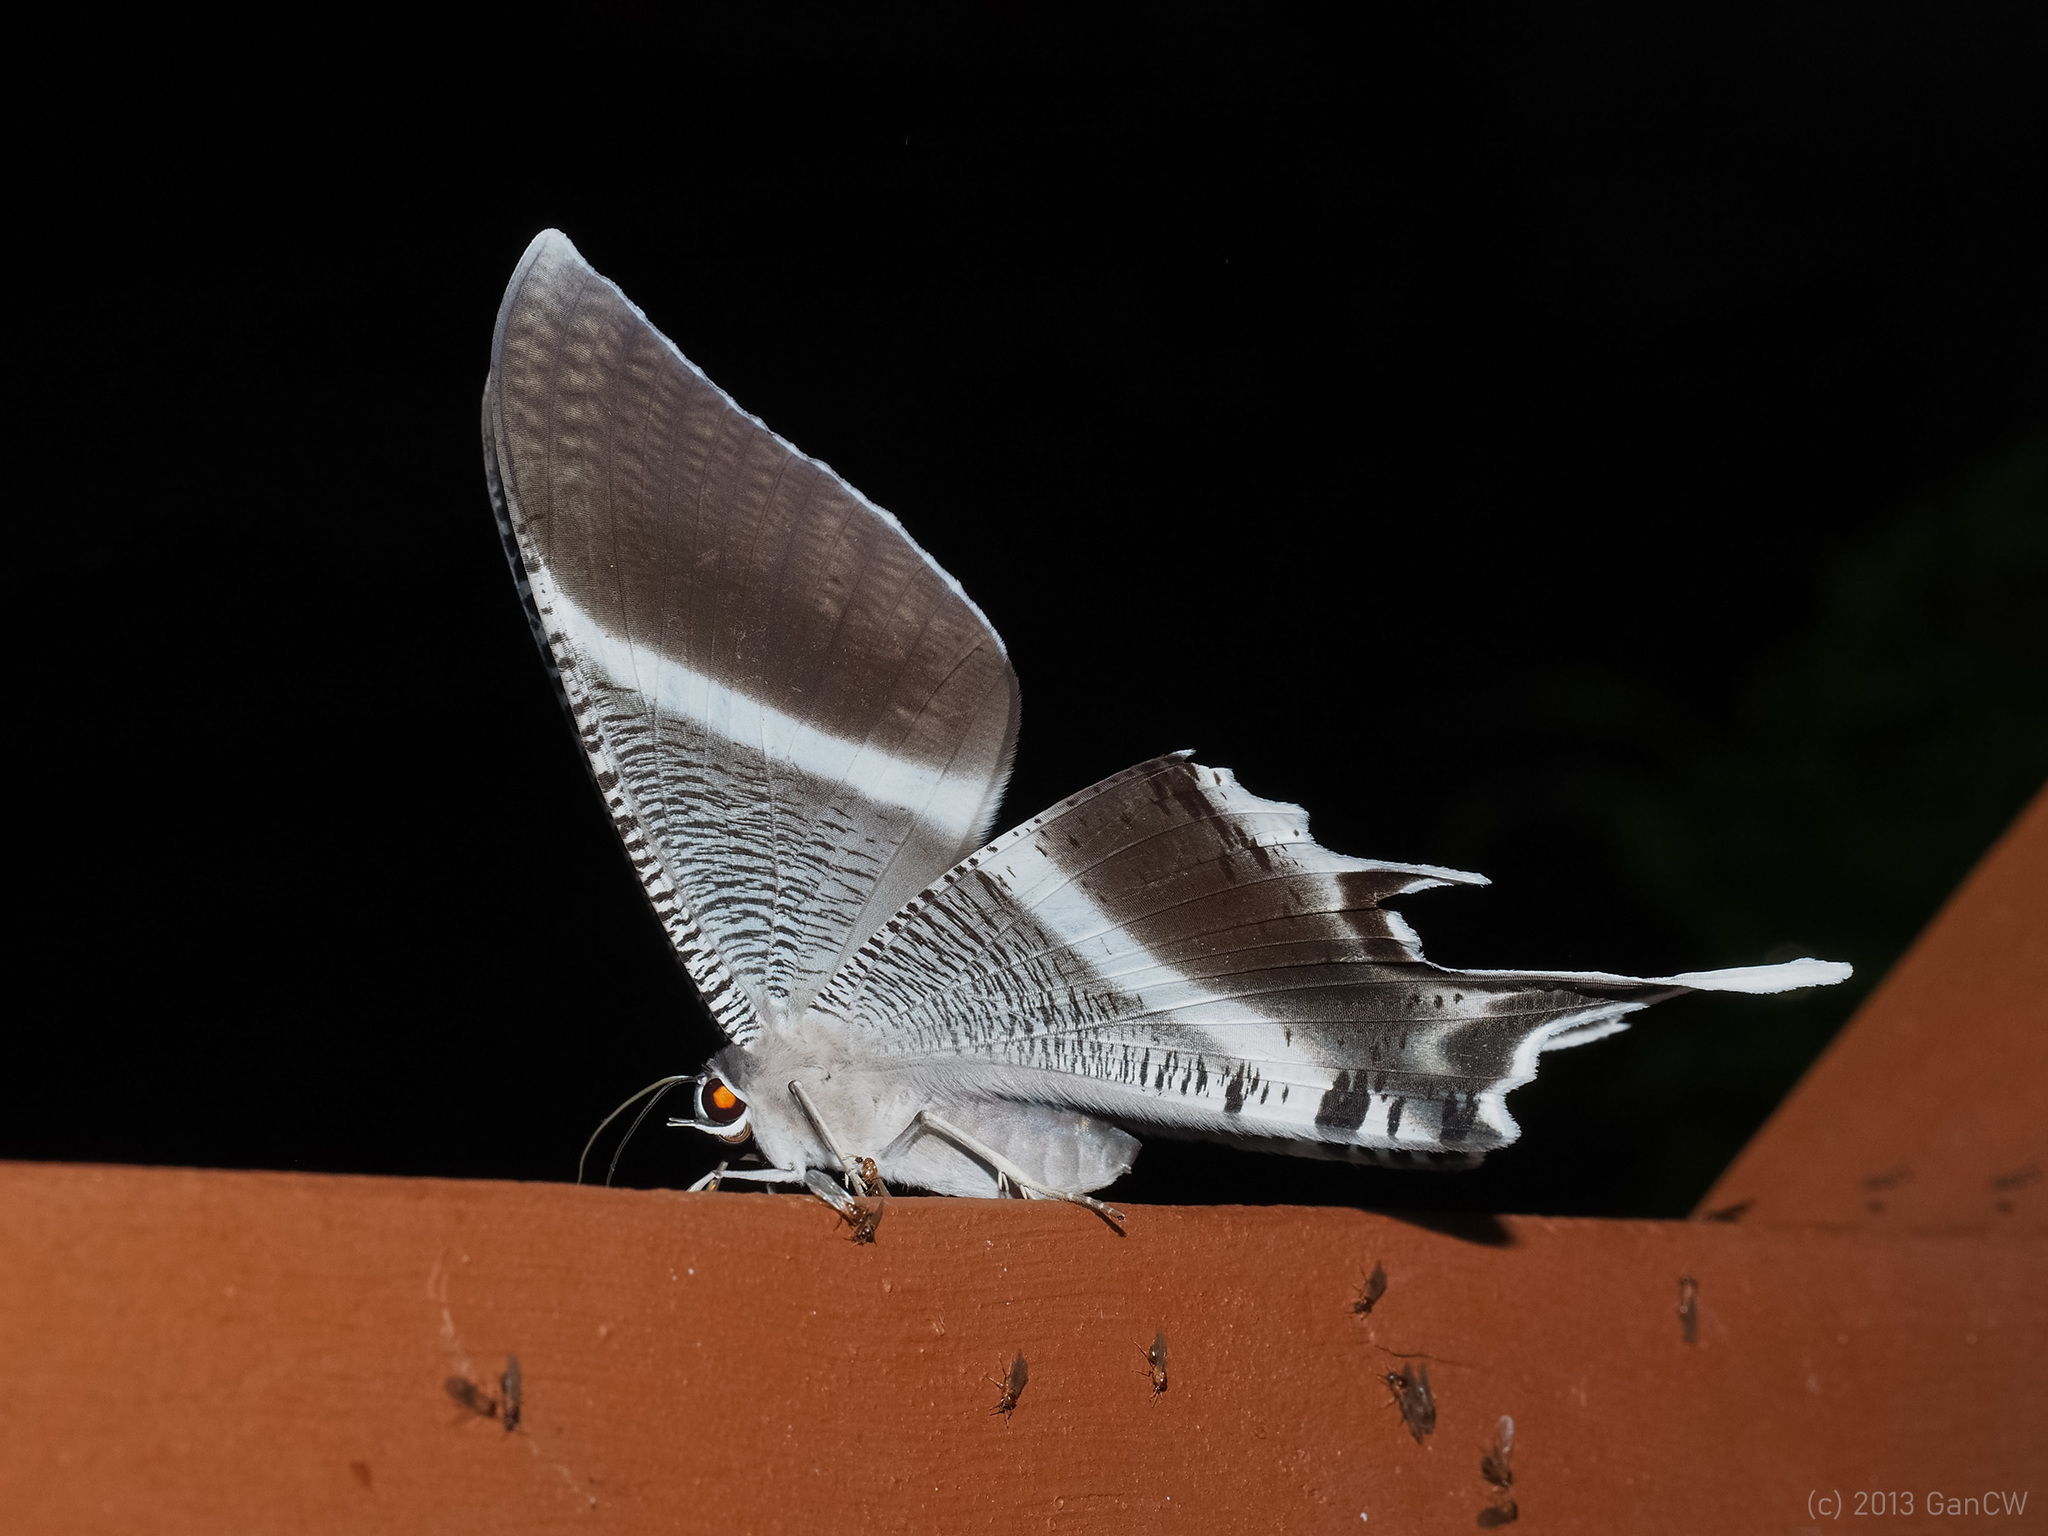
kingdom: Animalia
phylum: Arthropoda
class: Insecta
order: Lepidoptera
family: Uraniidae
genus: Lyssa
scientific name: Lyssa menoetius
